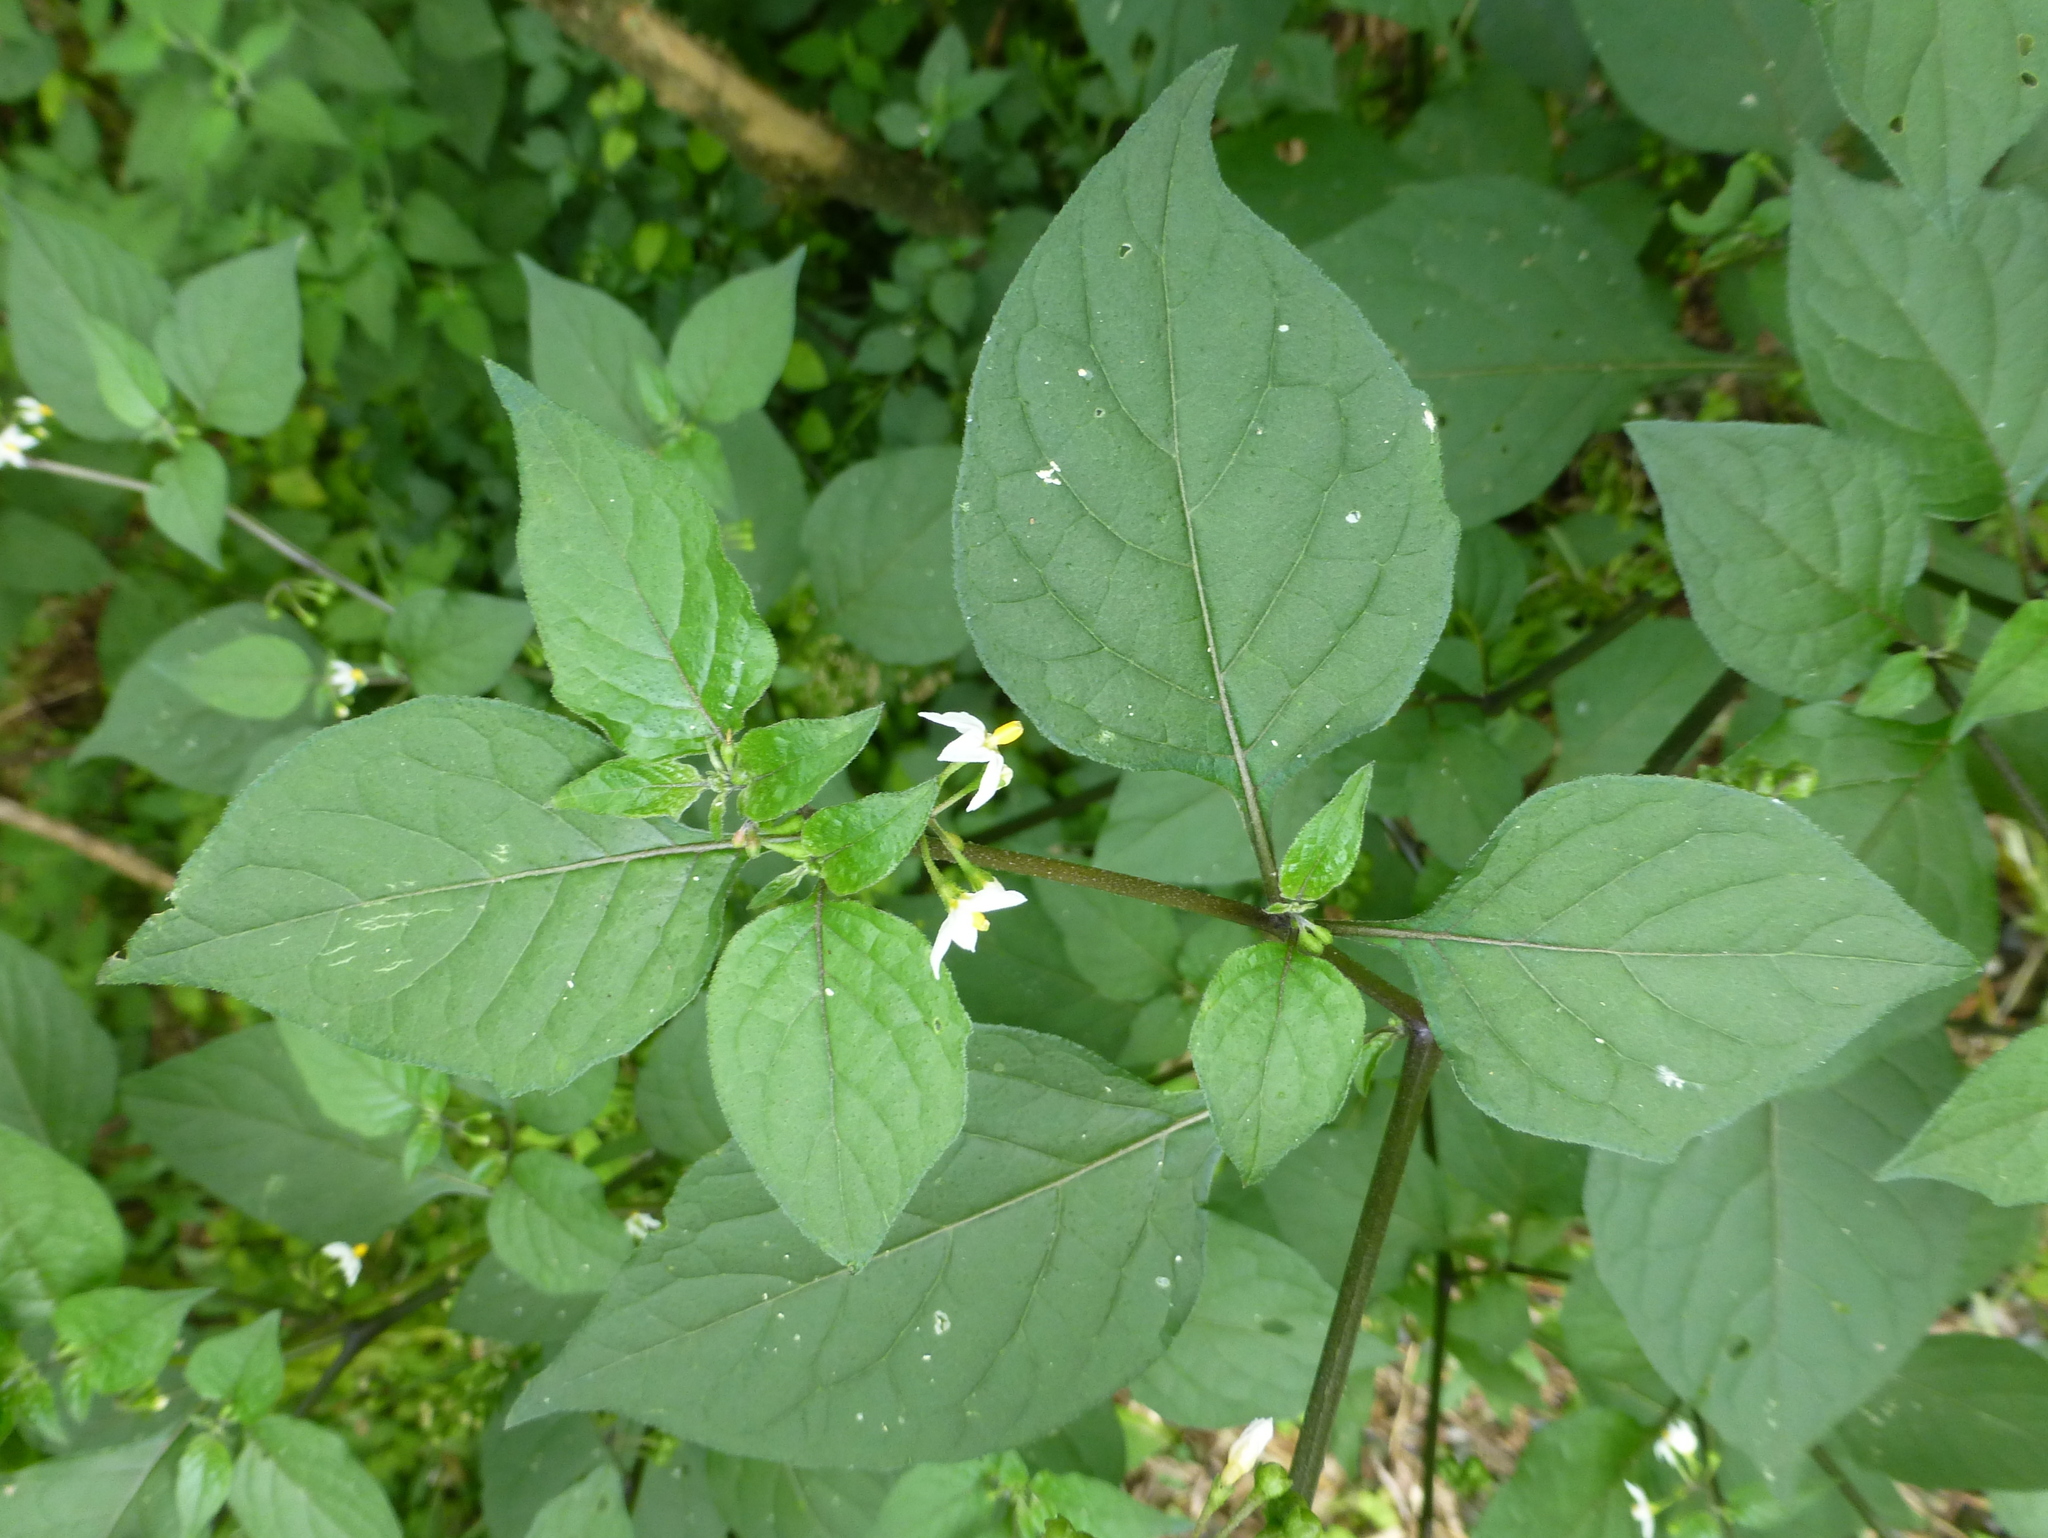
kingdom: Plantae
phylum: Tracheophyta
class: Magnoliopsida
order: Solanales
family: Solanaceae
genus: Solanum
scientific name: Solanum nigrum
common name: Black nightshade
